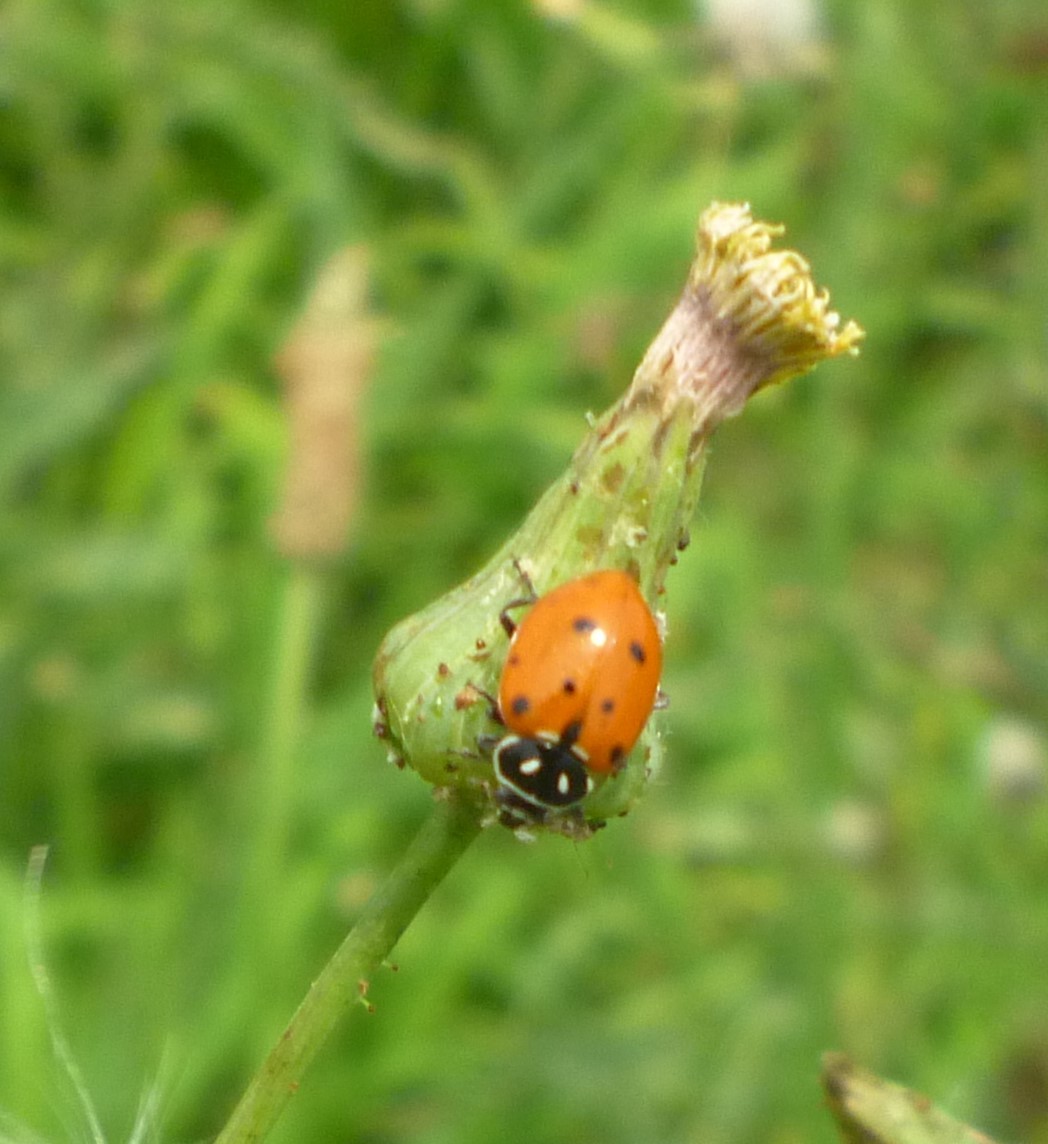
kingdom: Animalia
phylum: Arthropoda
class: Insecta
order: Coleoptera
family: Coccinellidae
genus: Hippodamia
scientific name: Hippodamia convergens
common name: Convergent lady beetle
